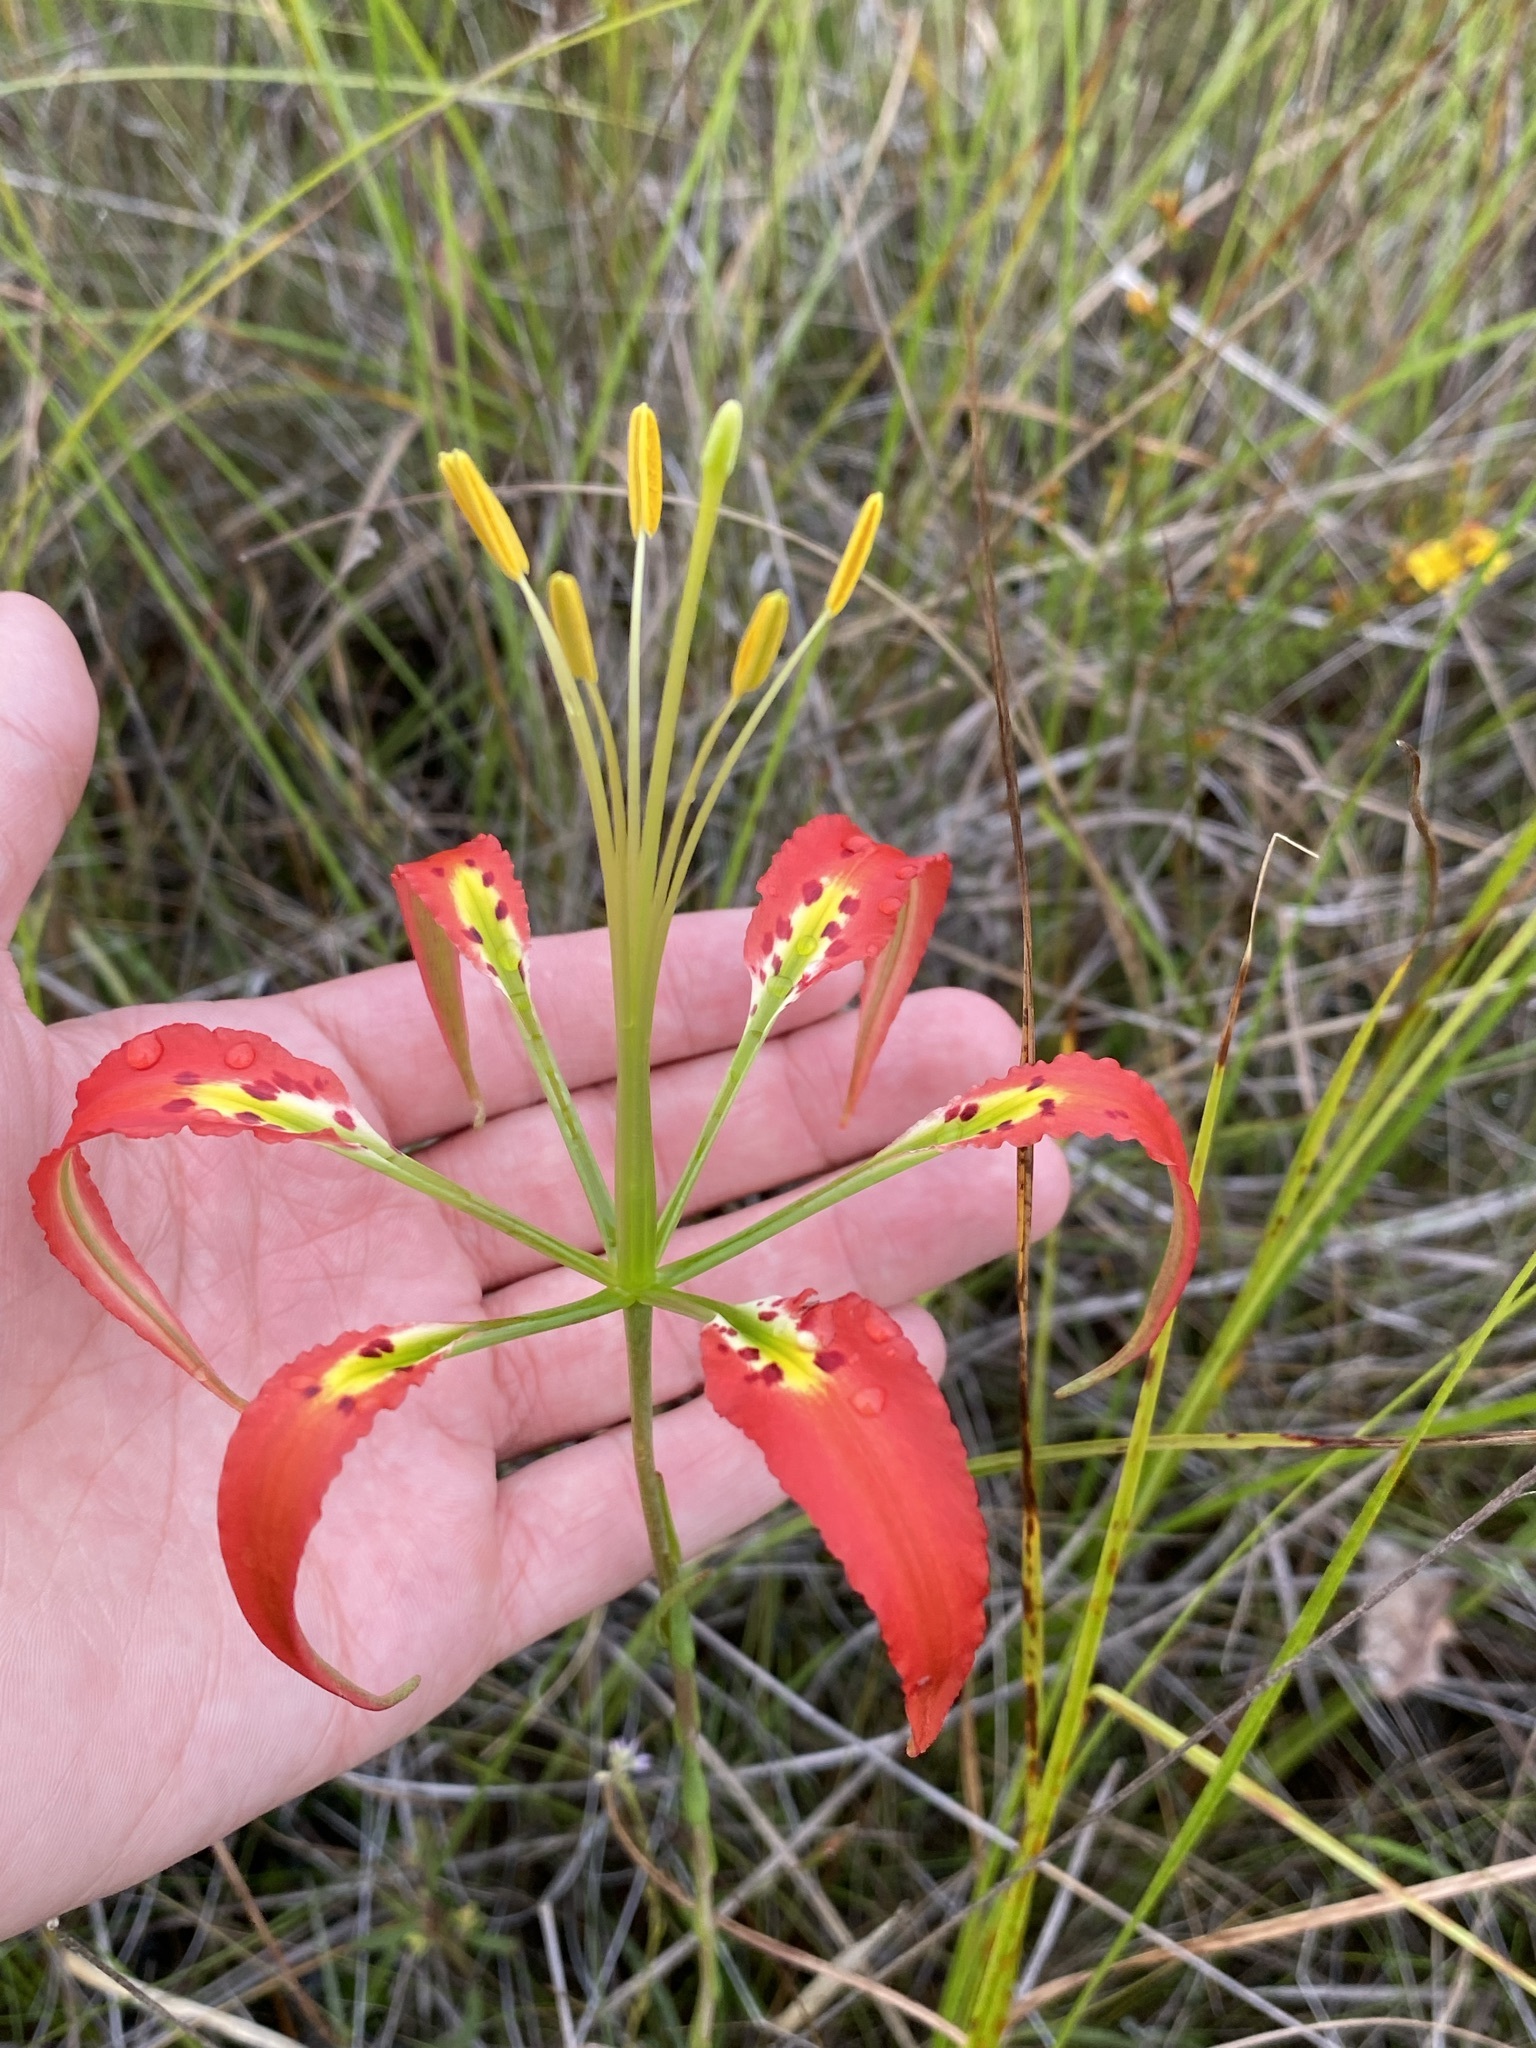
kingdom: Plantae
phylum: Tracheophyta
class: Liliopsida
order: Liliales
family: Liliaceae
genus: Lilium
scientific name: Lilium catesbaei
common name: Catesby's lily
